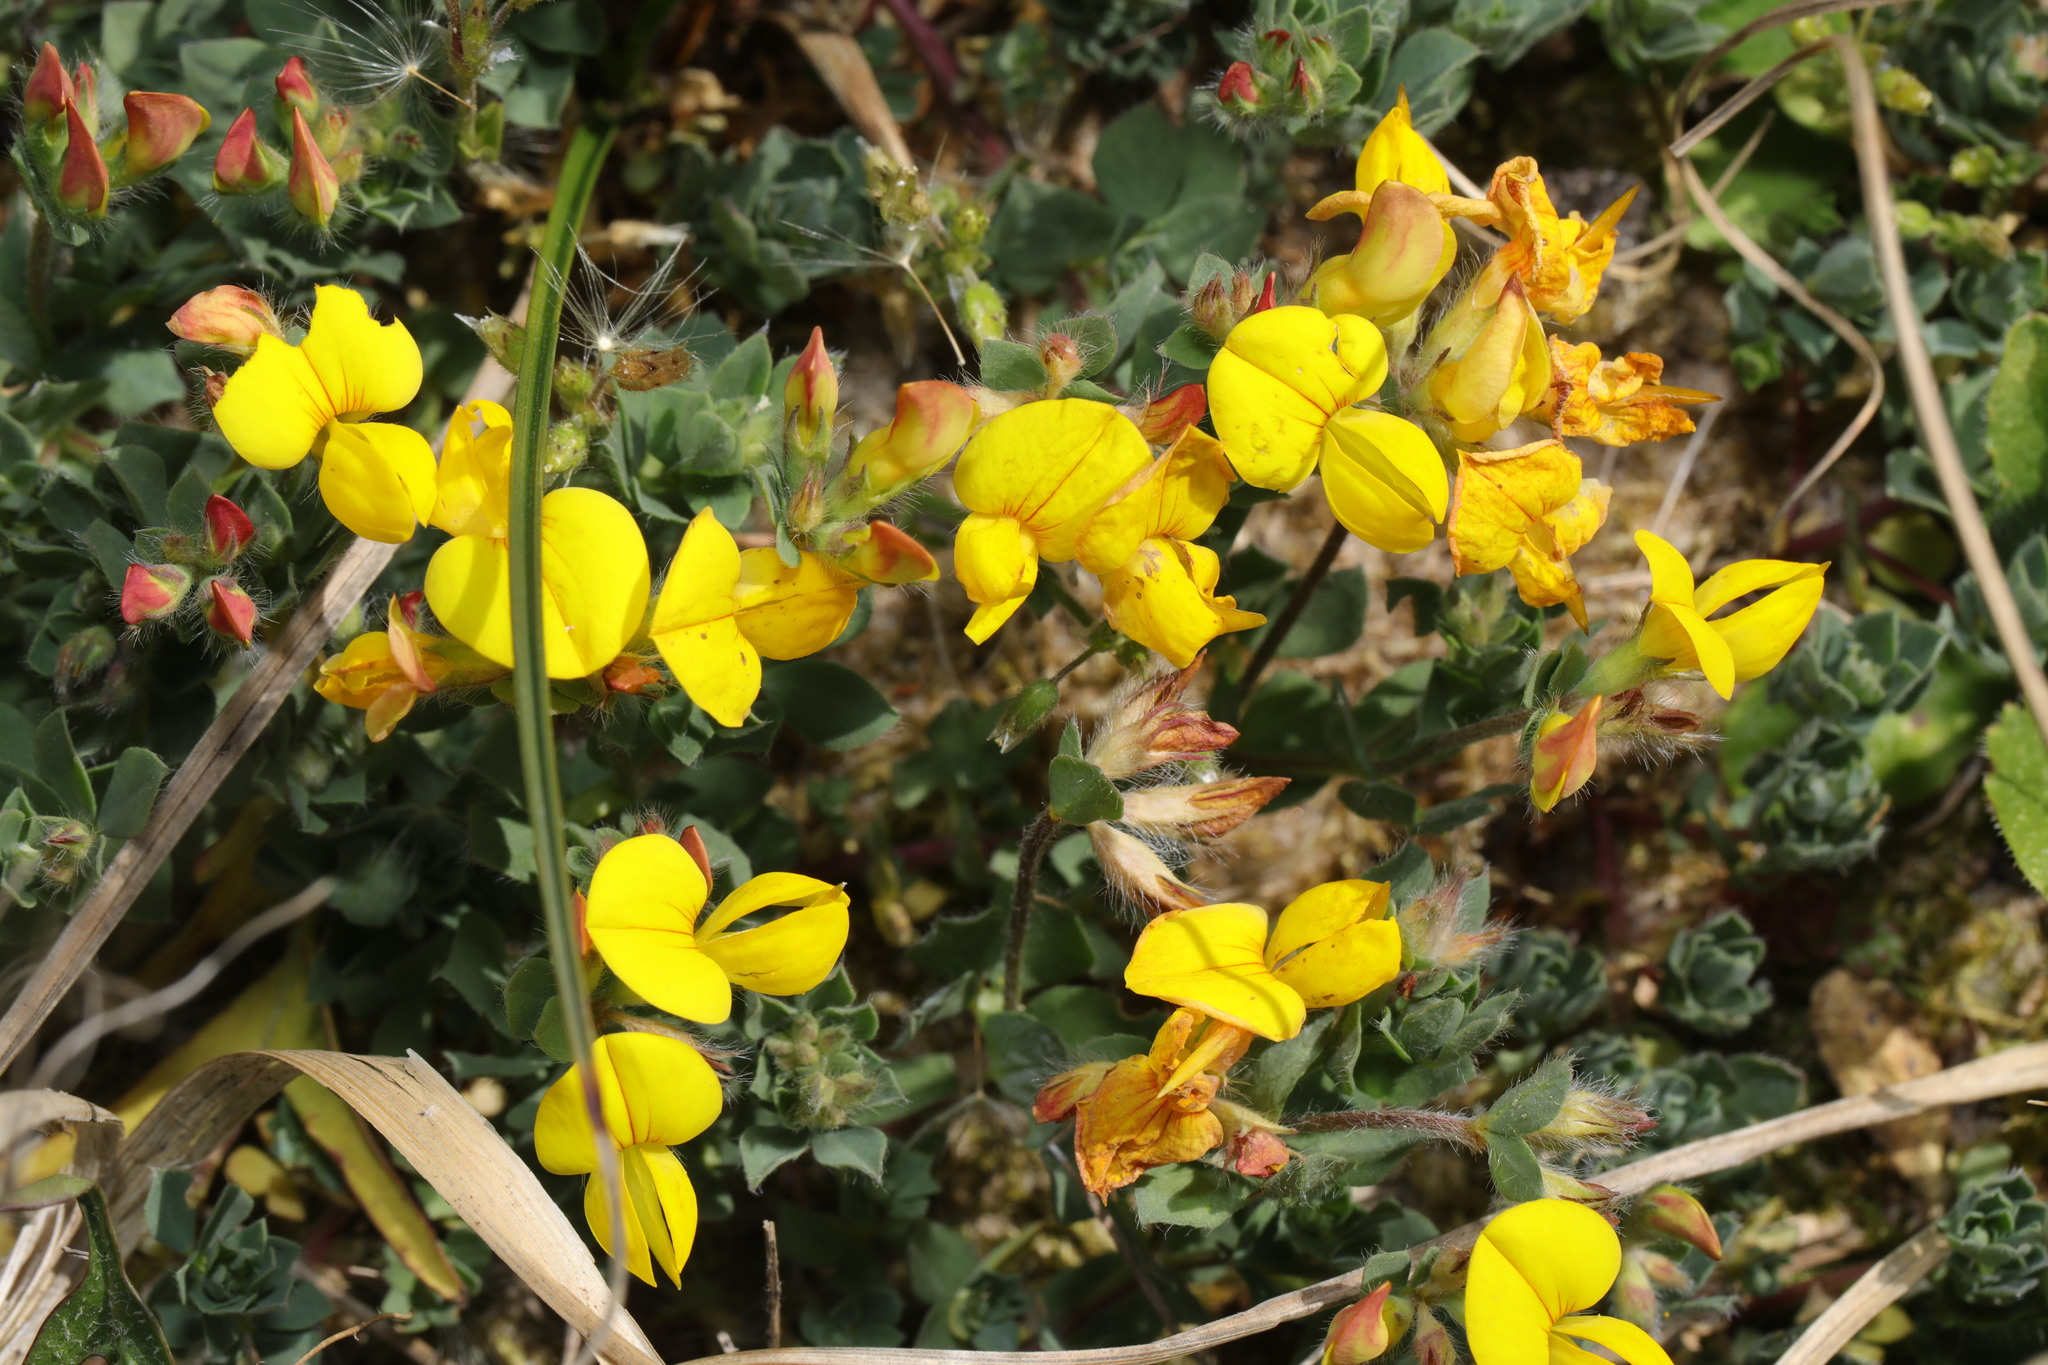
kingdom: Plantae
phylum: Tracheophyta
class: Magnoliopsida
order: Fabales
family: Fabaceae
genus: Lotus
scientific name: Lotus corniculatus
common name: Common bird's-foot-trefoil
